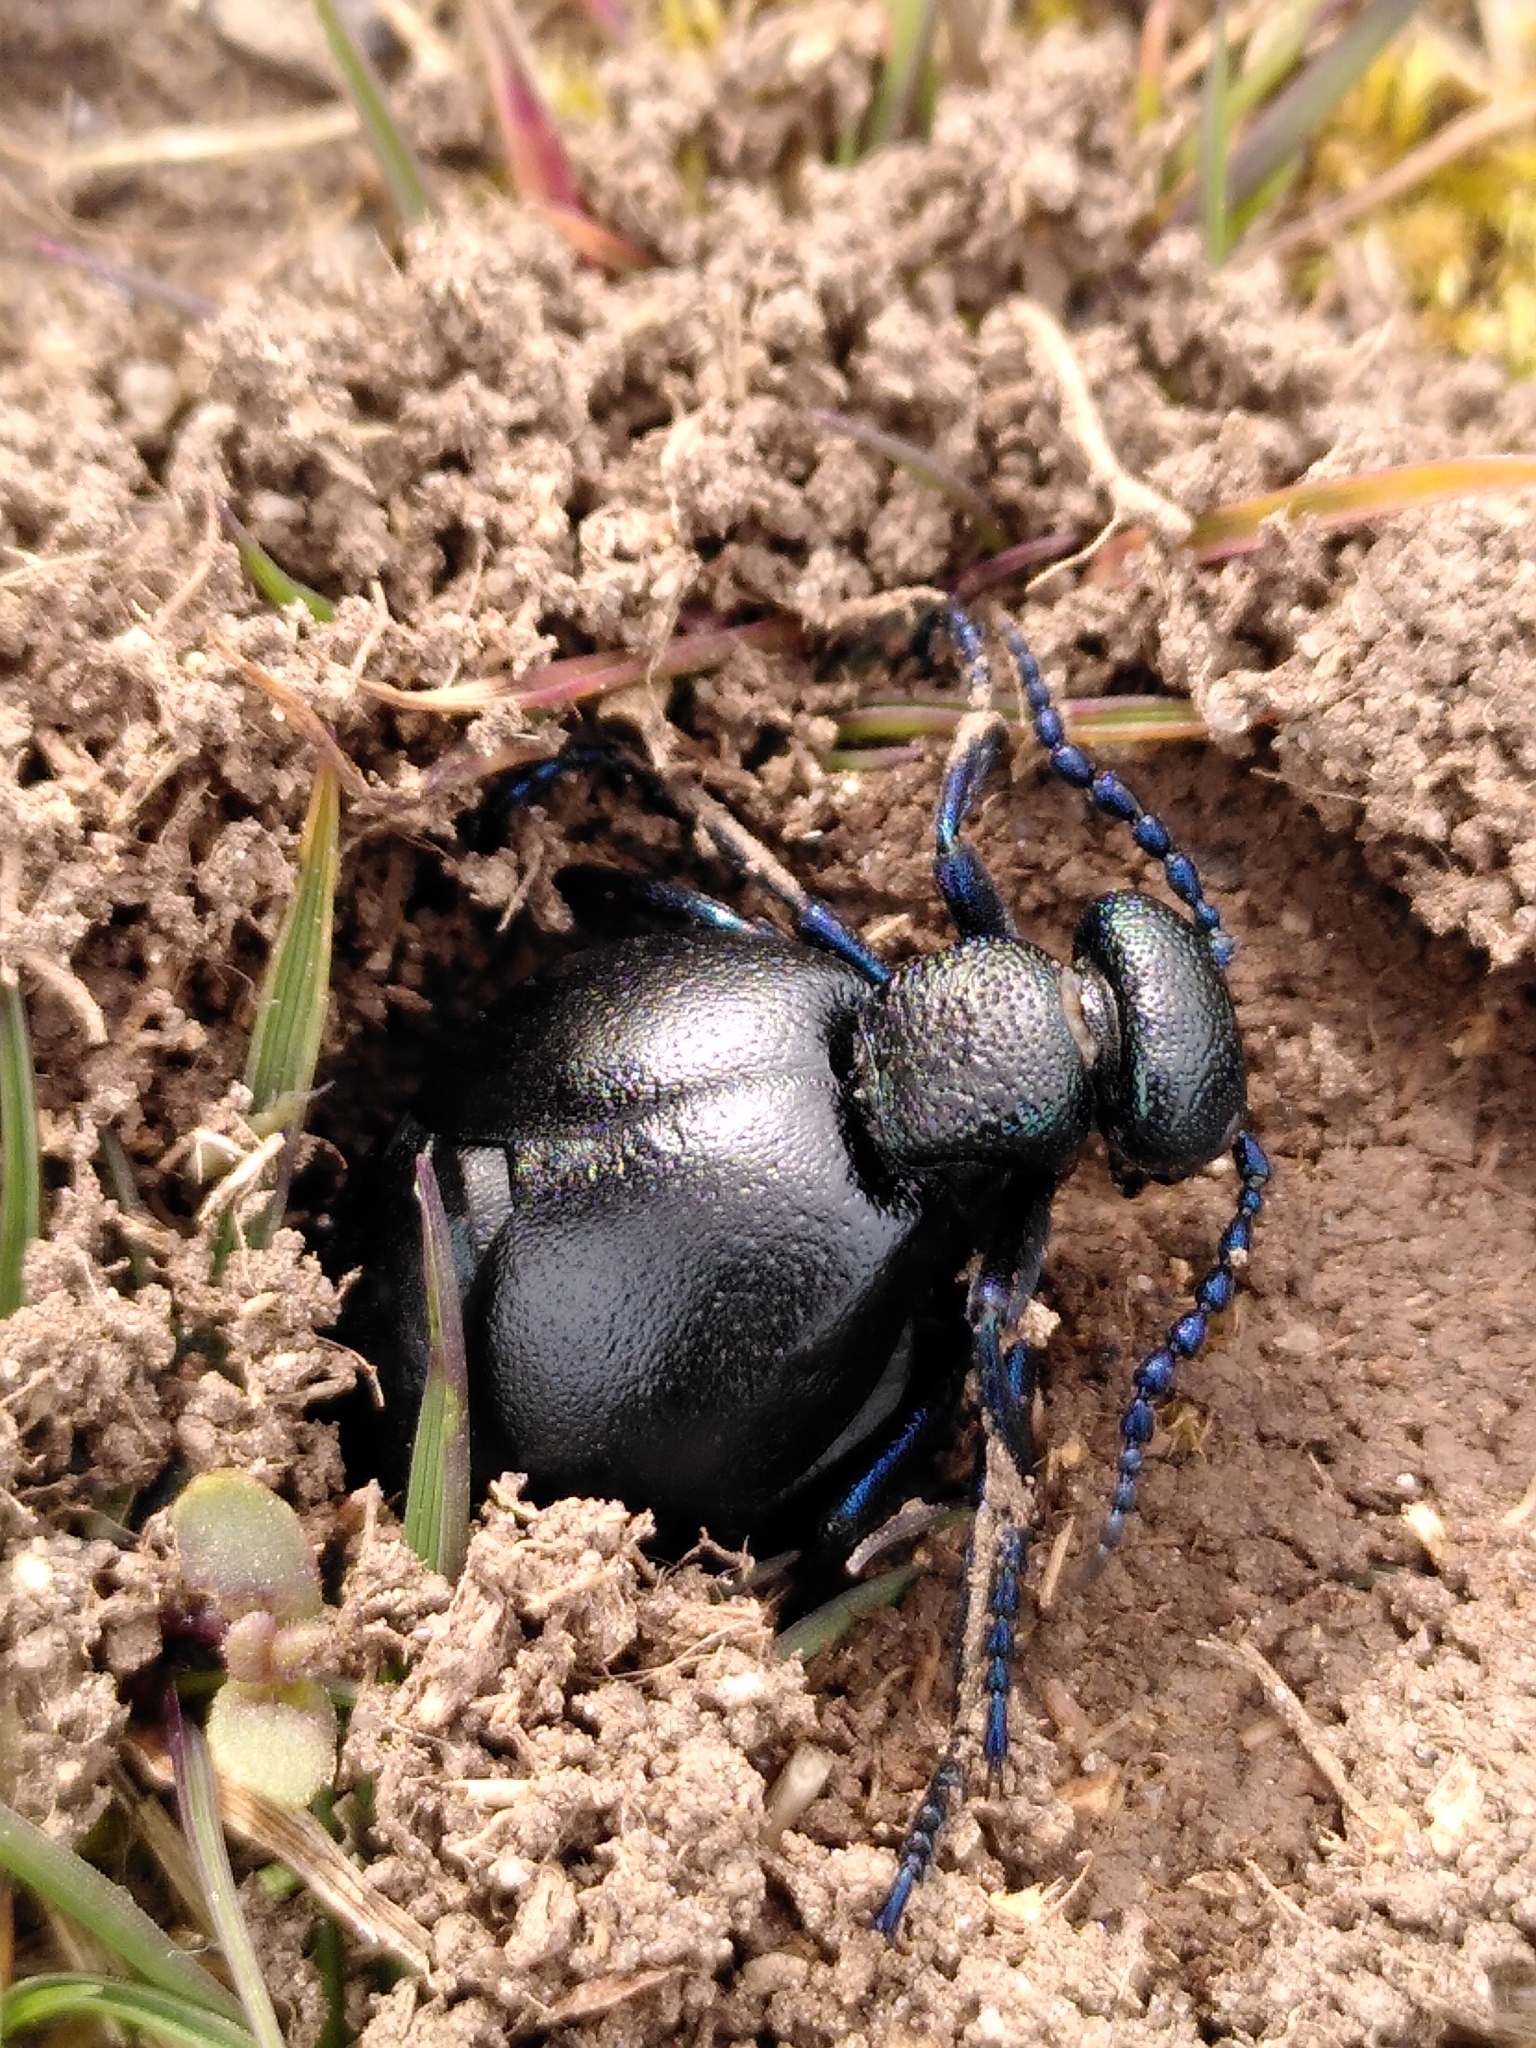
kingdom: Animalia
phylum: Arthropoda
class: Insecta
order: Coleoptera
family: Meloidae
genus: Meloe
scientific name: Meloe proscarabaeus
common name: Black oil-beetle
